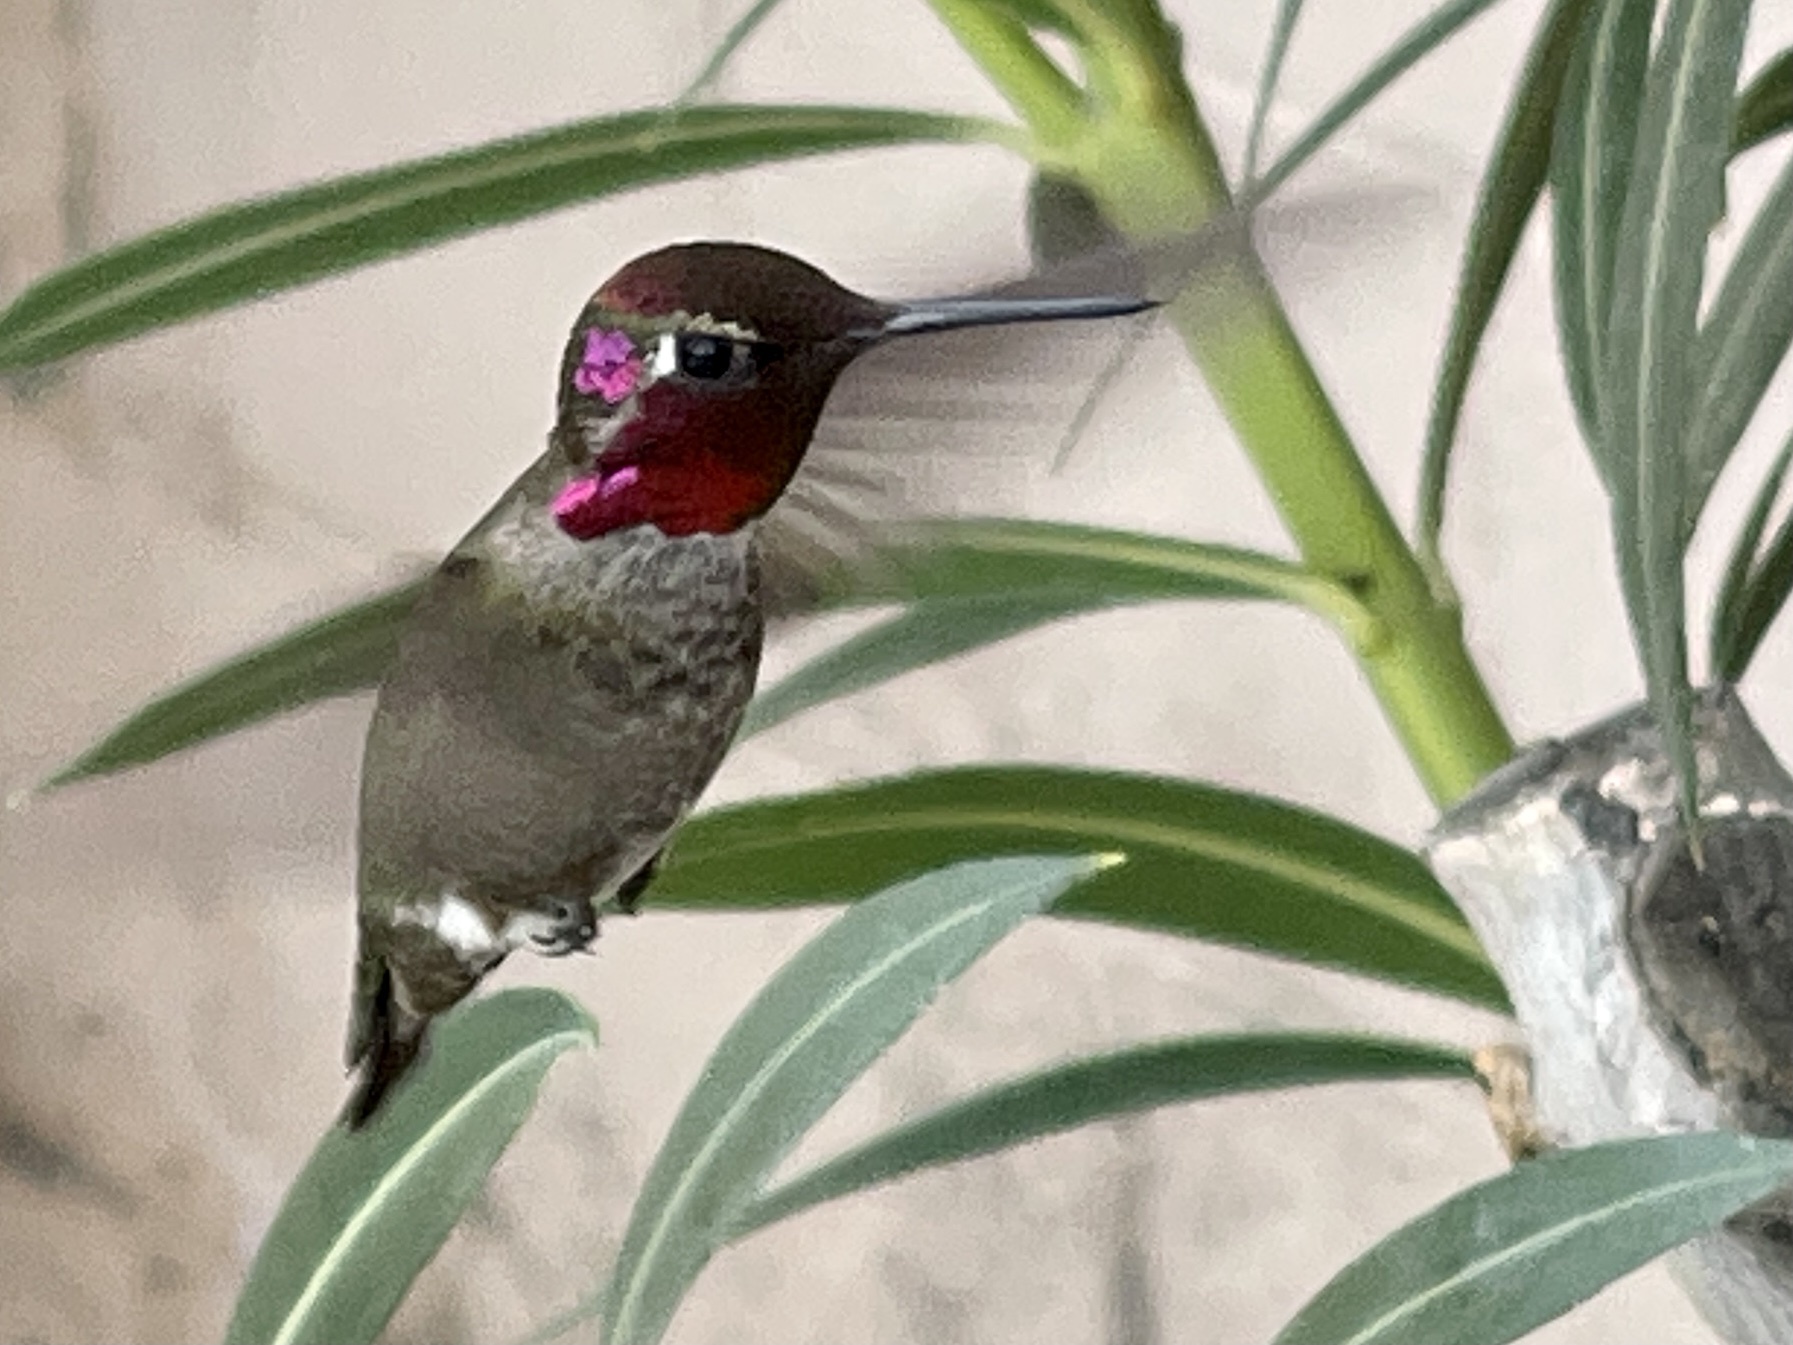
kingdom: Animalia
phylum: Chordata
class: Aves
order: Apodiformes
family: Trochilidae
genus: Calypte
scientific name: Calypte anna
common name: Anna's hummingbird
